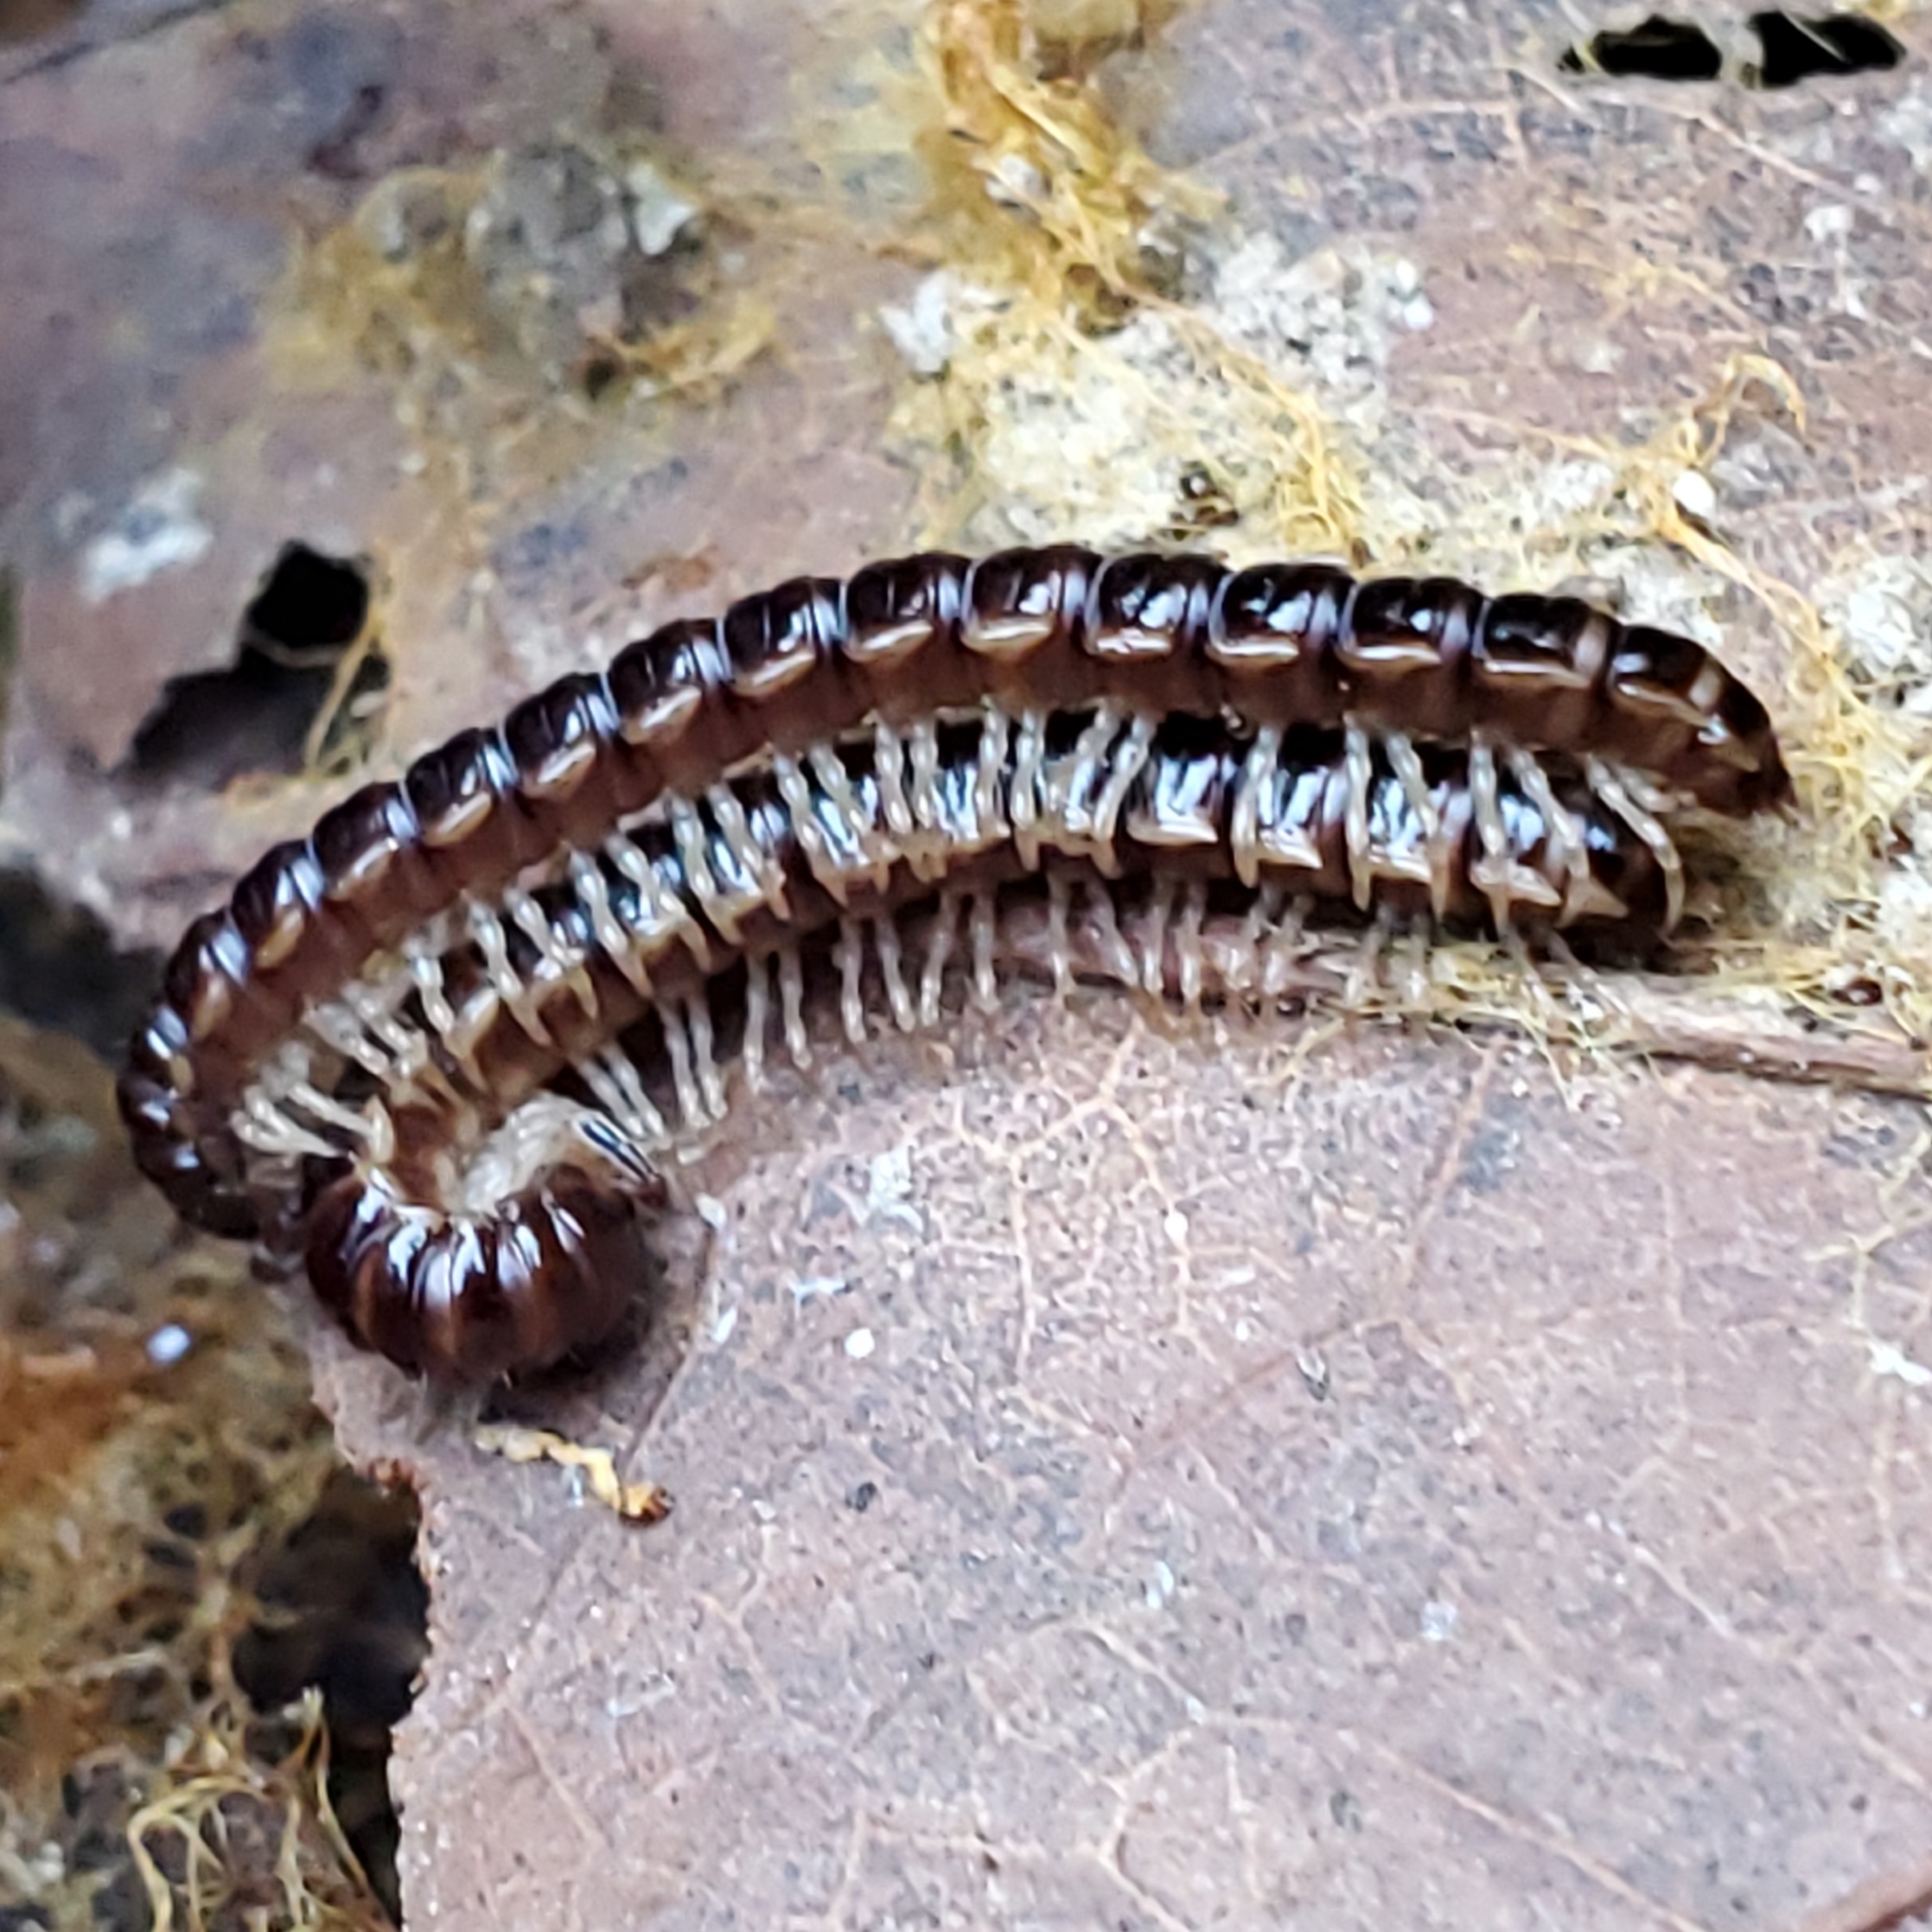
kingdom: Animalia
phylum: Arthropoda
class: Diplopoda
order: Polydesmida
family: Paradoxosomatidae
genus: Oxidus
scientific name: Oxidus gracilis
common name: Greenhouse millipede
